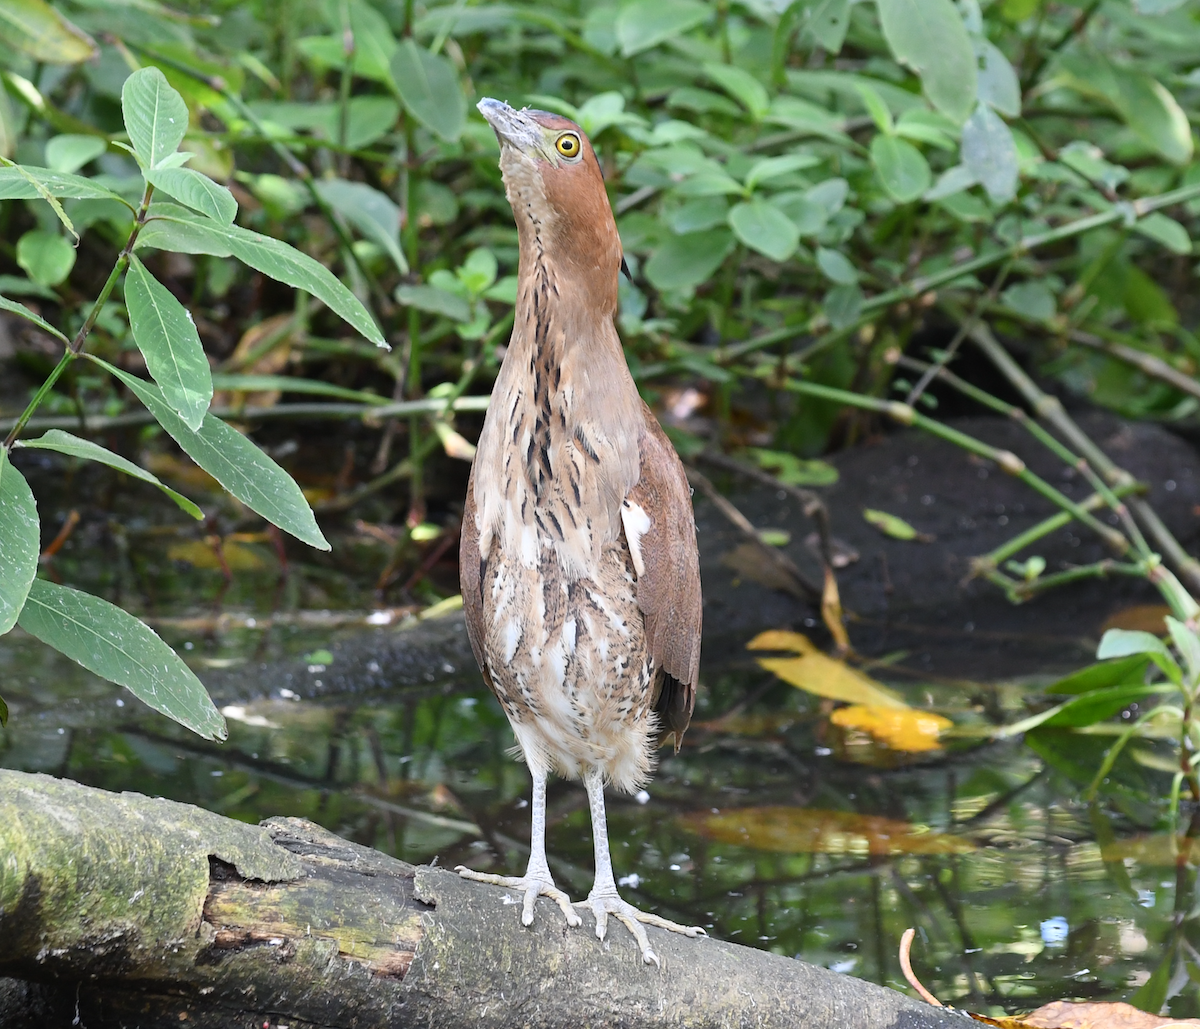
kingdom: Animalia
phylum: Chordata
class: Aves
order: Pelecaniformes
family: Ardeidae
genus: Gorsachius
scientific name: Gorsachius melanolophus
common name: Malayan night heron
